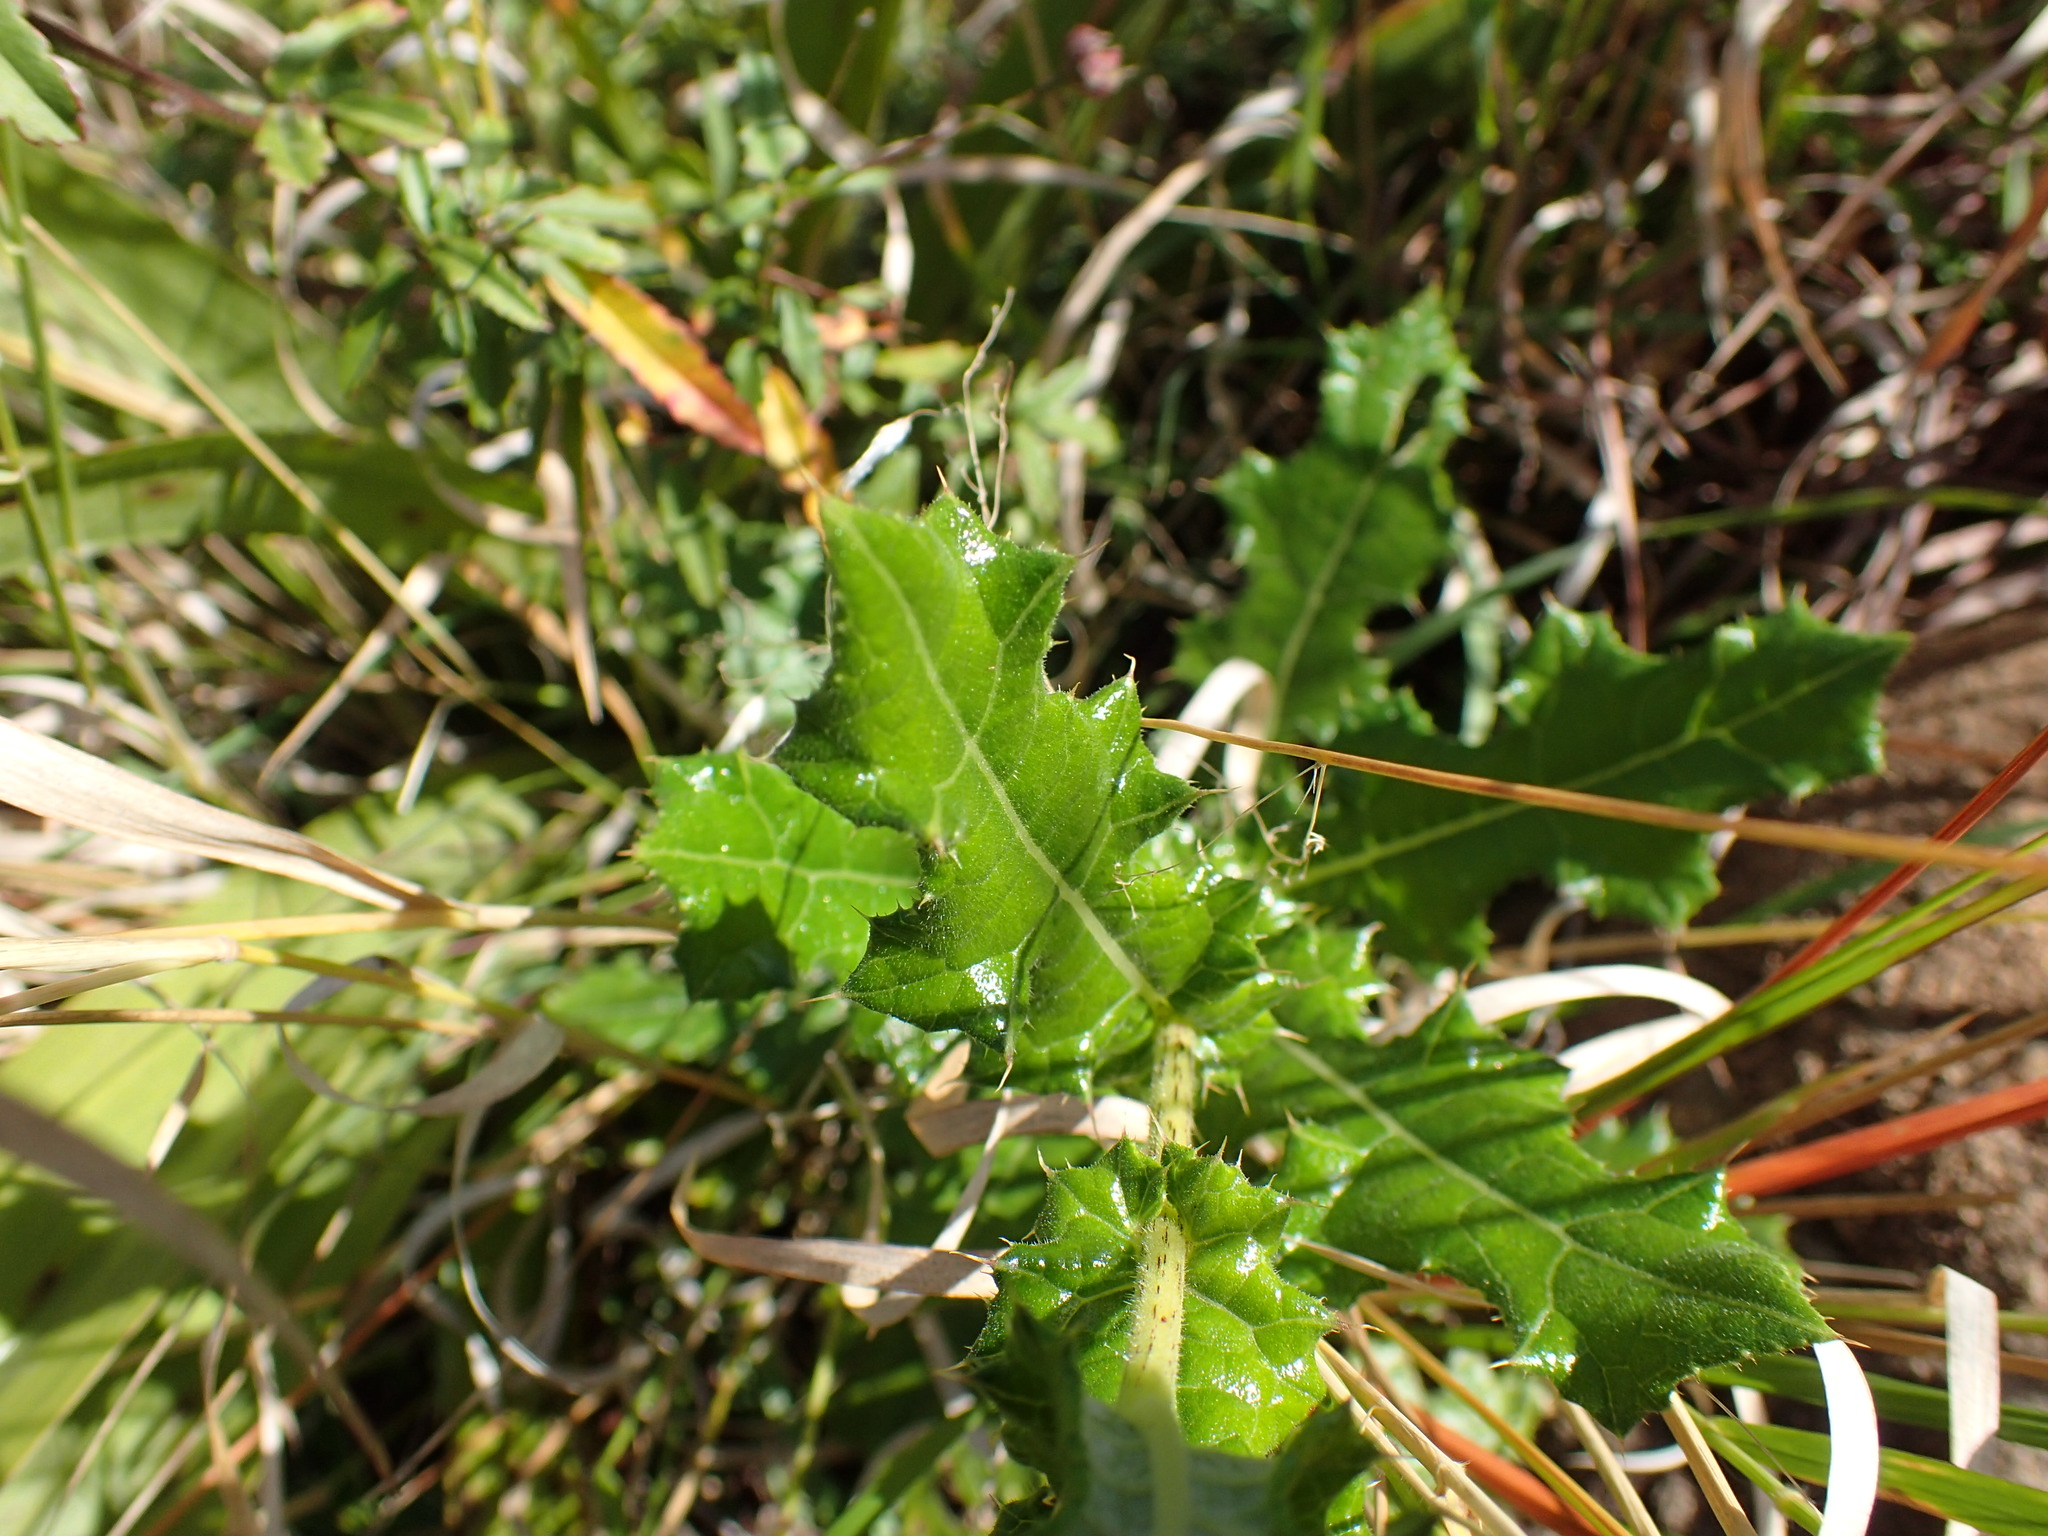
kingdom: Plantae
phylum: Tracheophyta
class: Magnoliopsida
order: Asterales
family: Asteraceae
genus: Berkheya
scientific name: Berkheya bergiana
